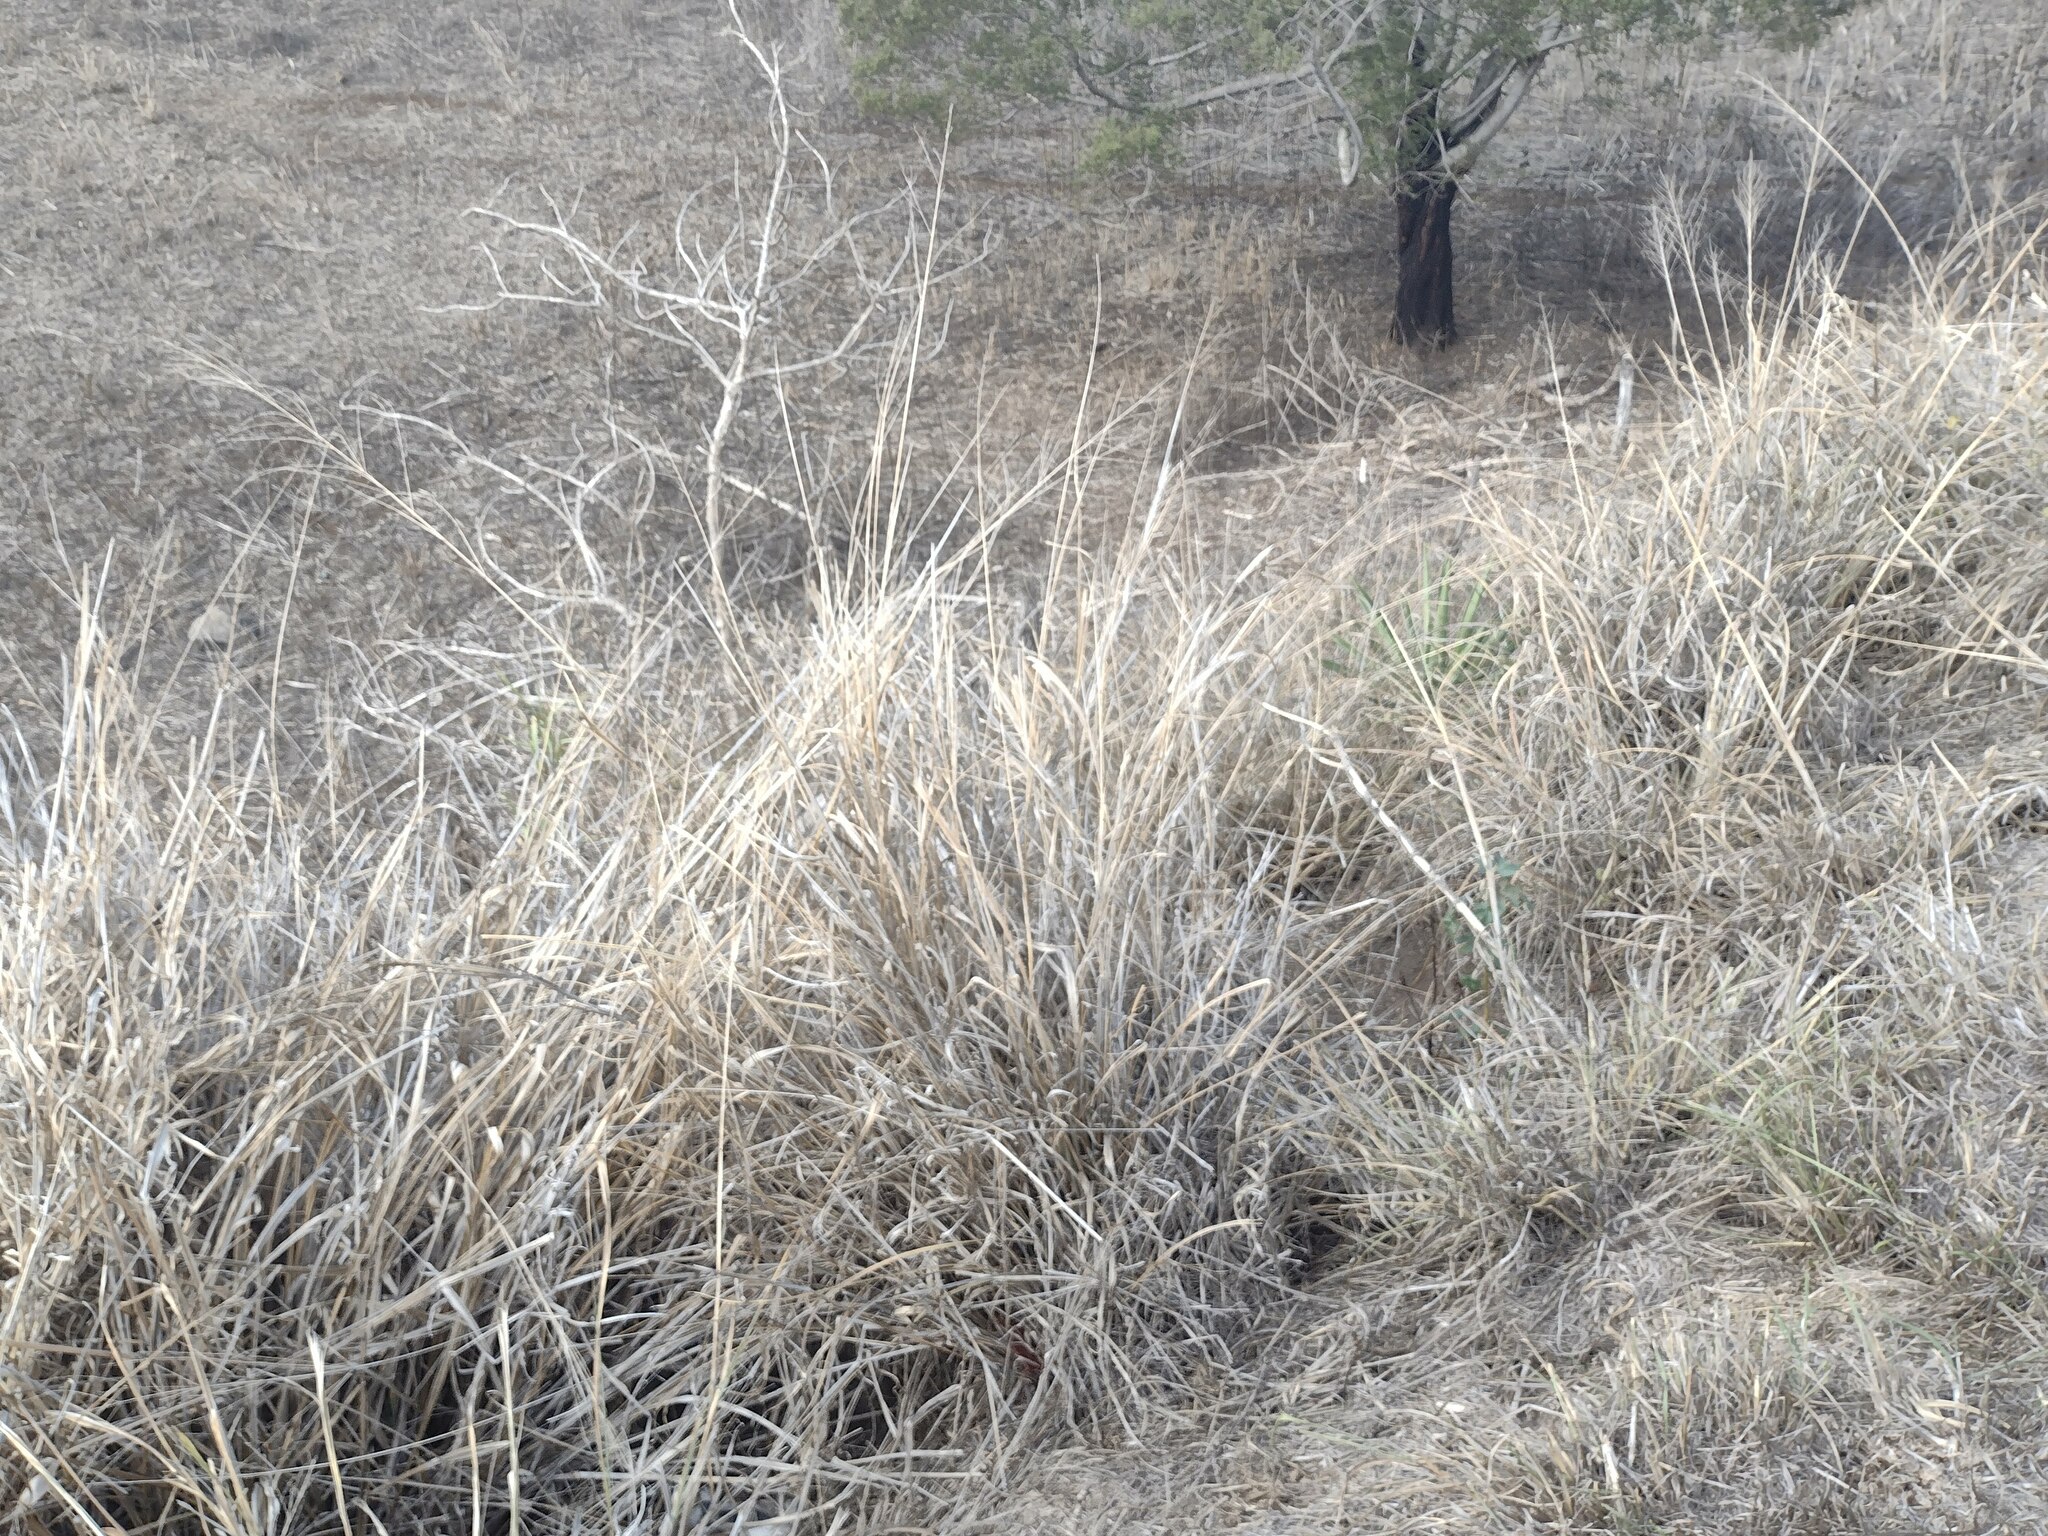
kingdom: Plantae
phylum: Tracheophyta
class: Liliopsida
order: Poales
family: Poaceae
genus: Megathyrsus
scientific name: Megathyrsus maximus
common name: Guineagrass
